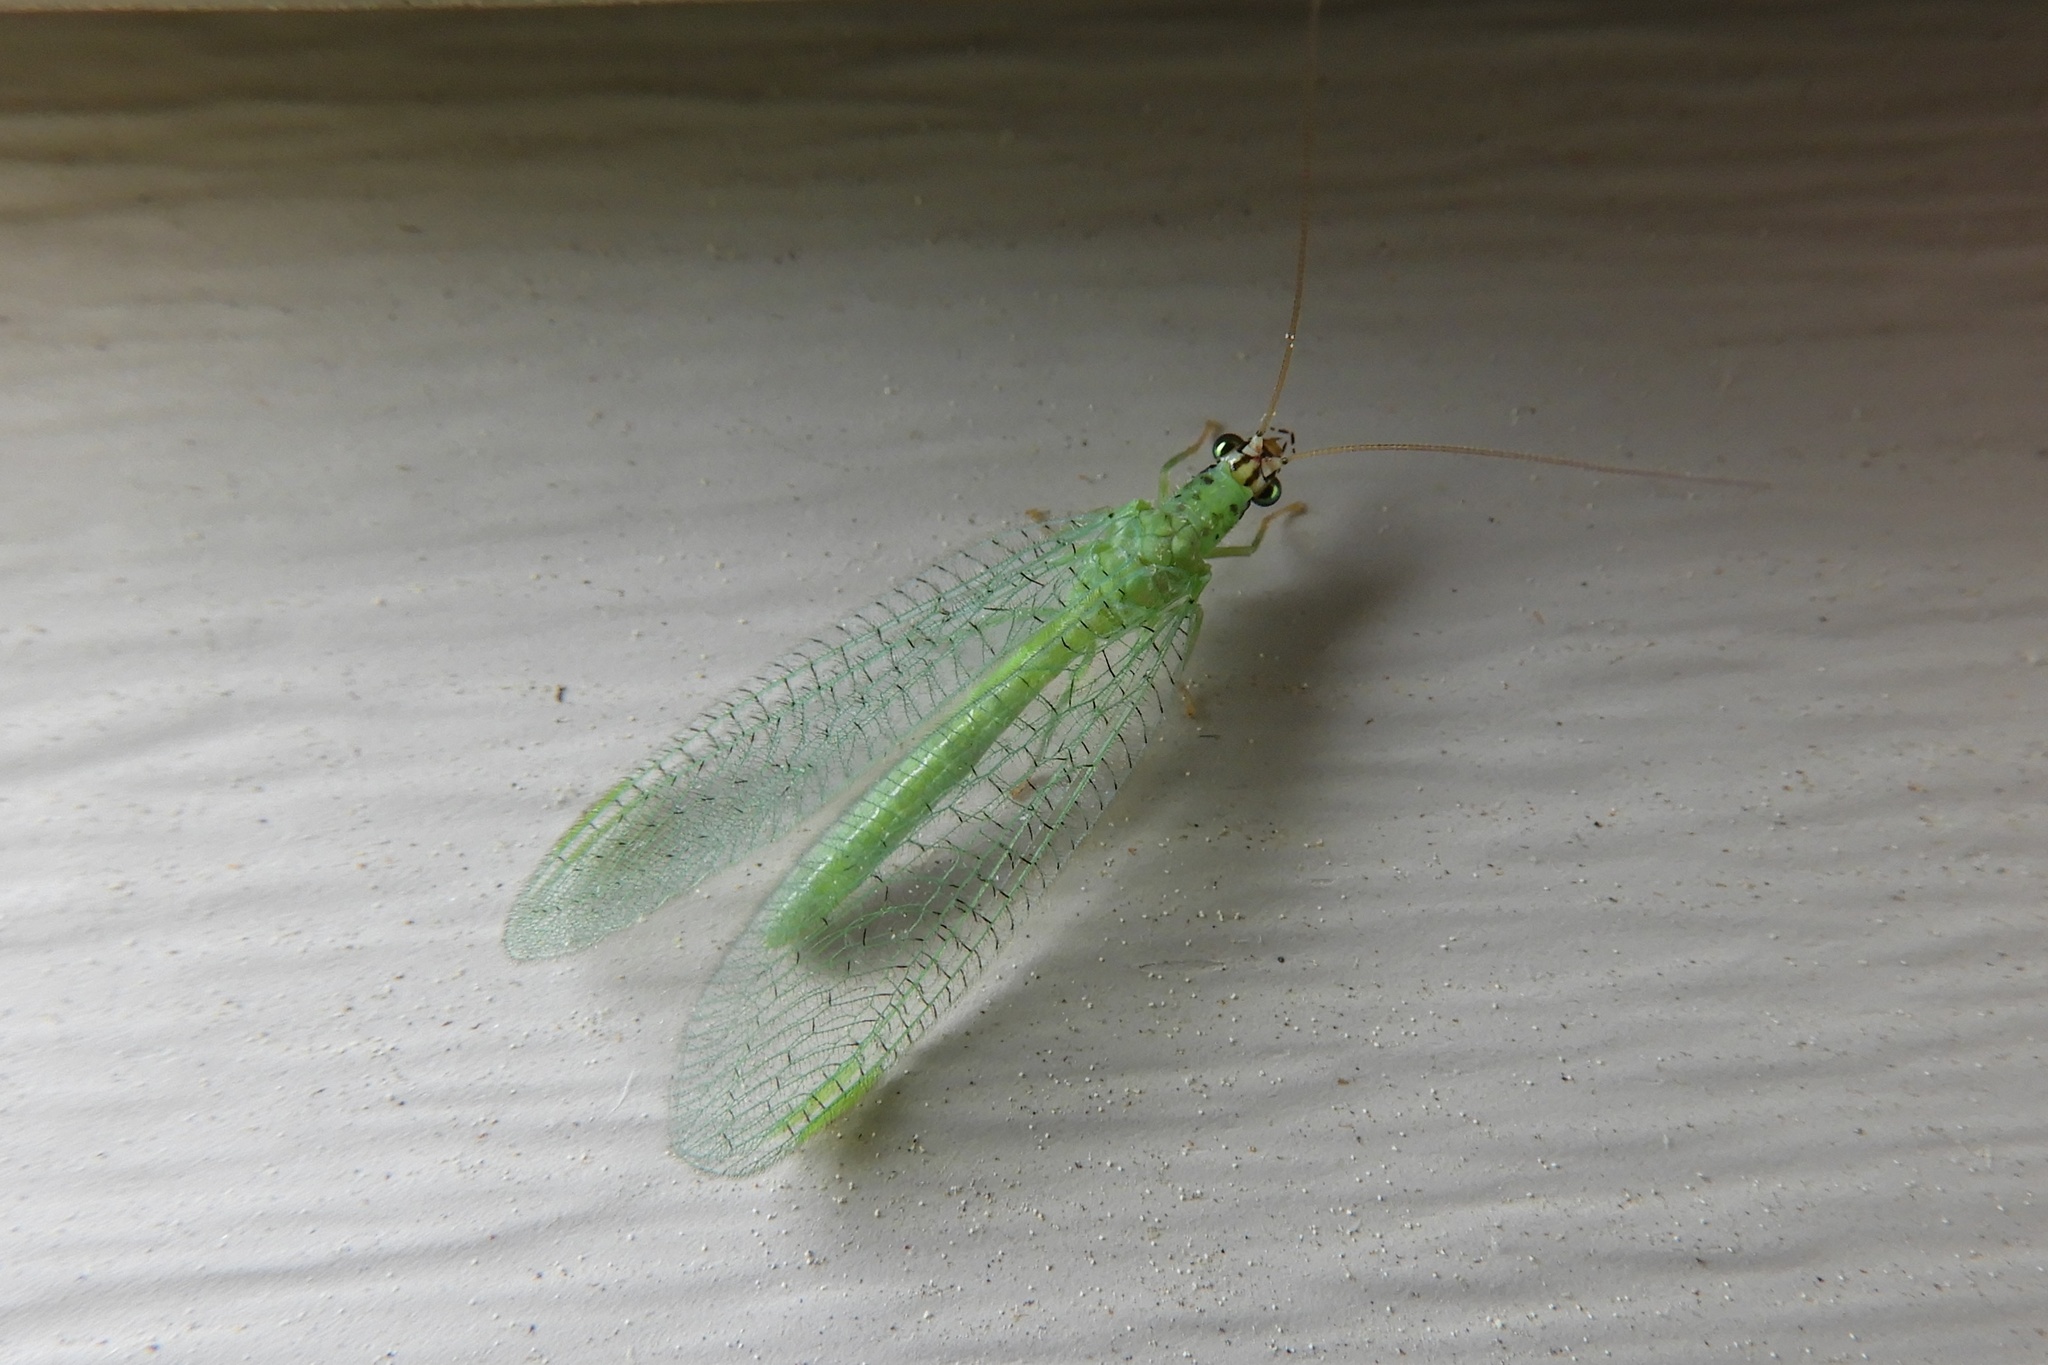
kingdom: Animalia
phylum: Arthropoda
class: Insecta
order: Neuroptera
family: Chrysopidae
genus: Chrysopa
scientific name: Chrysopa oculata
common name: Golden-eyed lacewing
